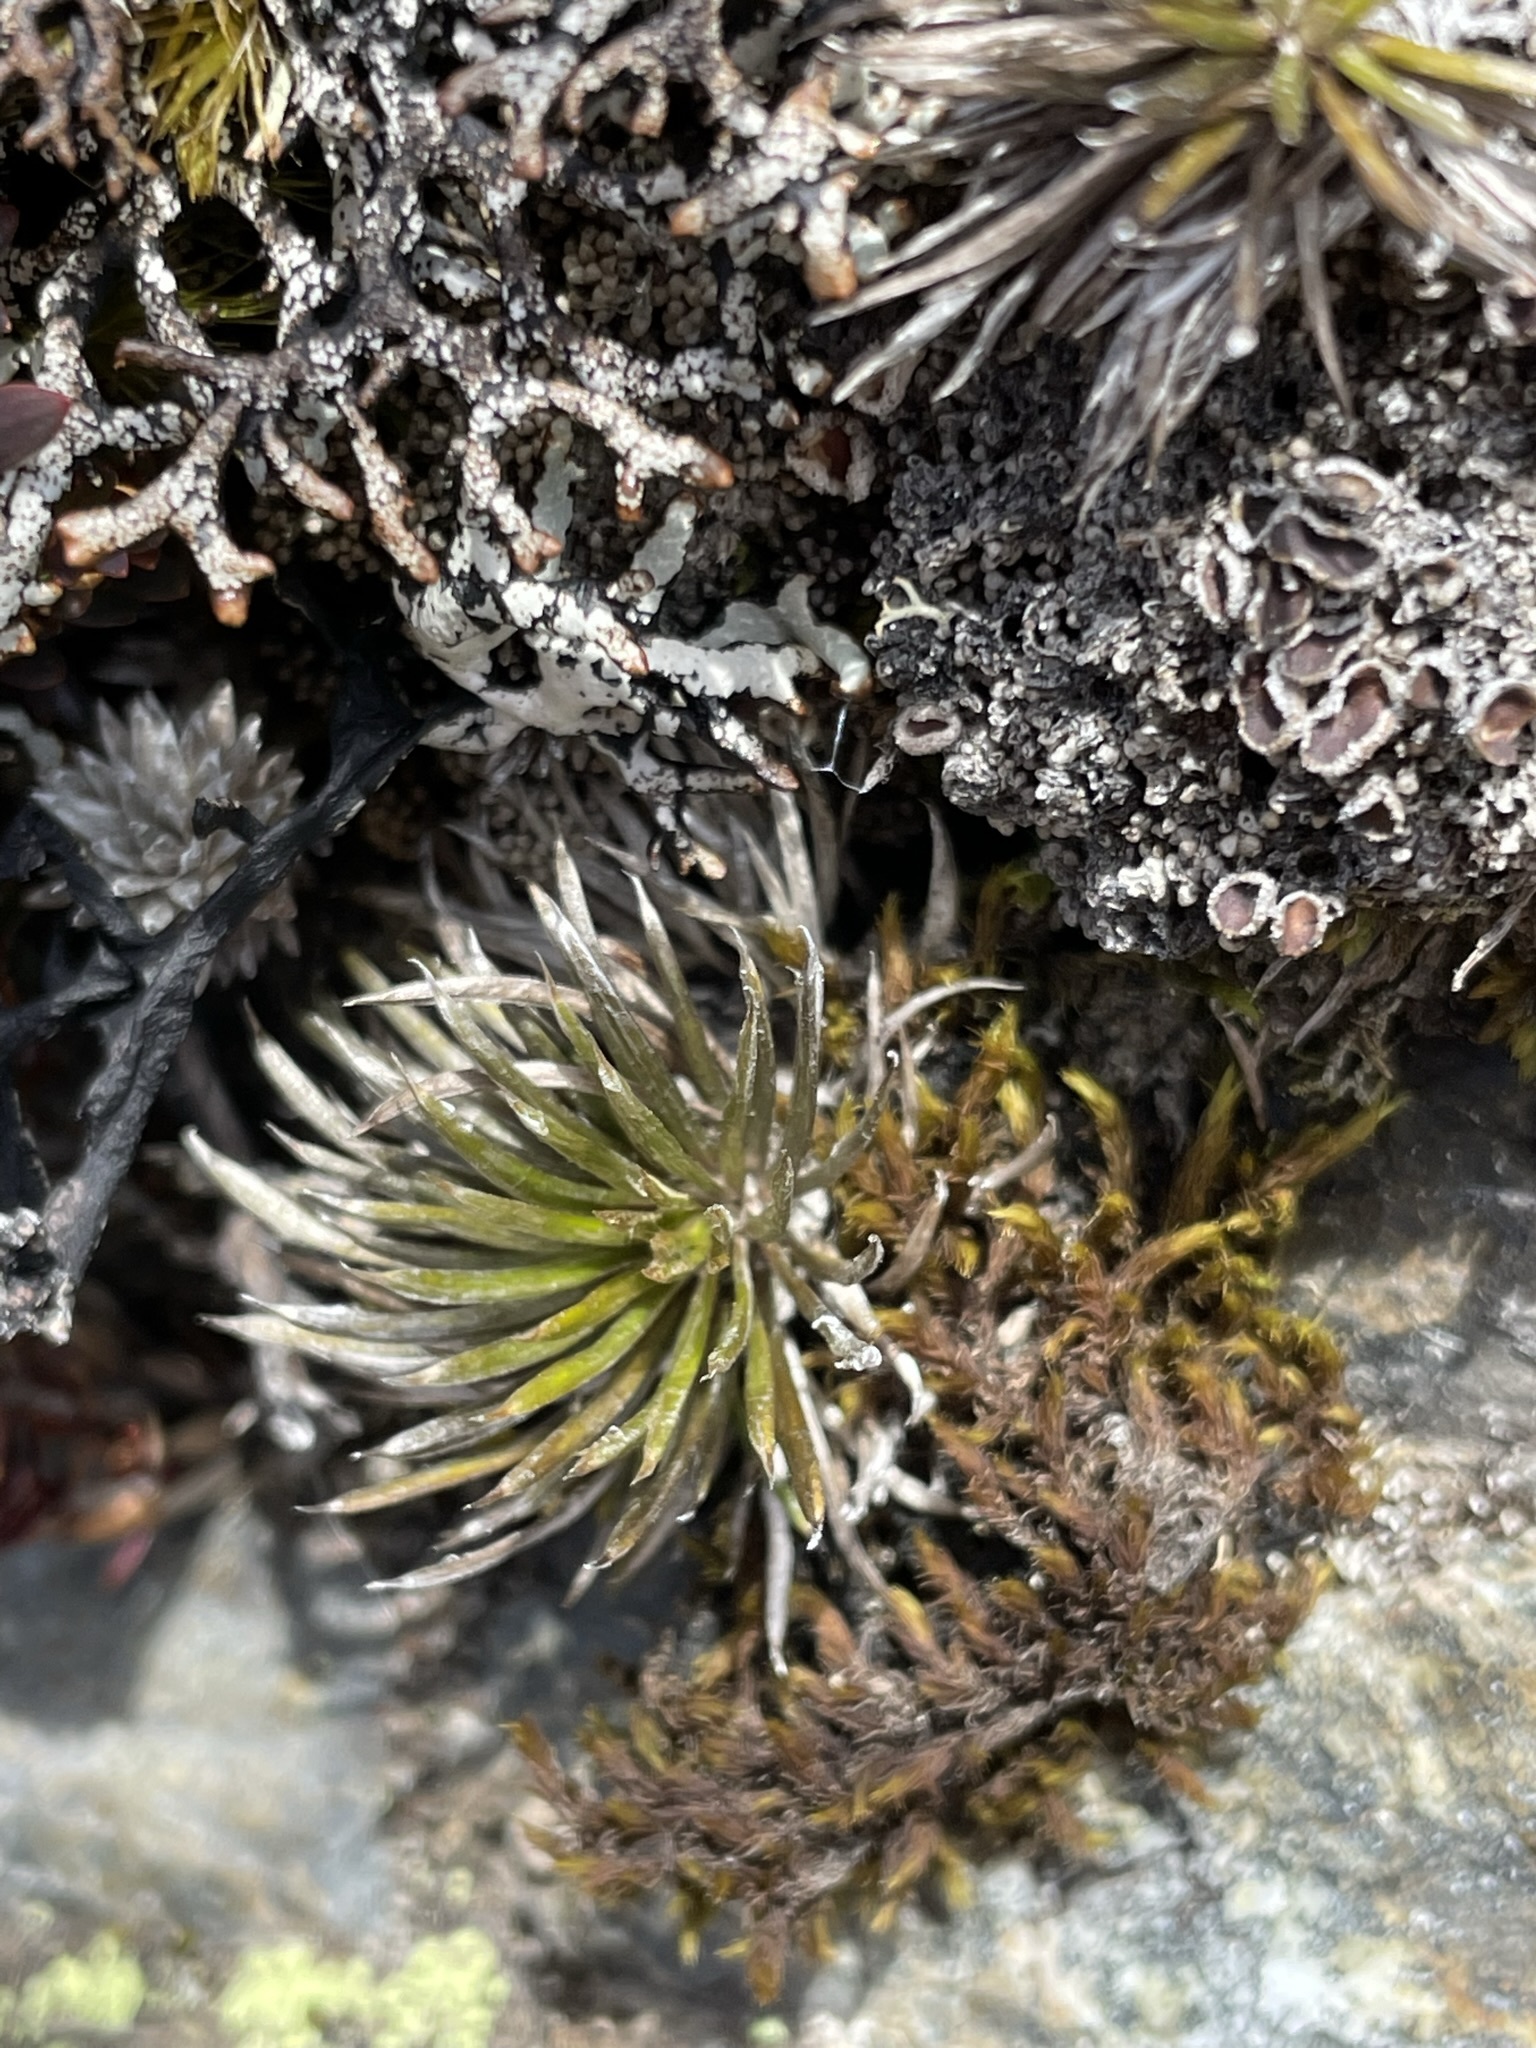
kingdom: Plantae
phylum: Tracheophyta
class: Magnoliopsida
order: Asterales
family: Asteraceae
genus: Celmisia
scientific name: Celmisia laricifolia
